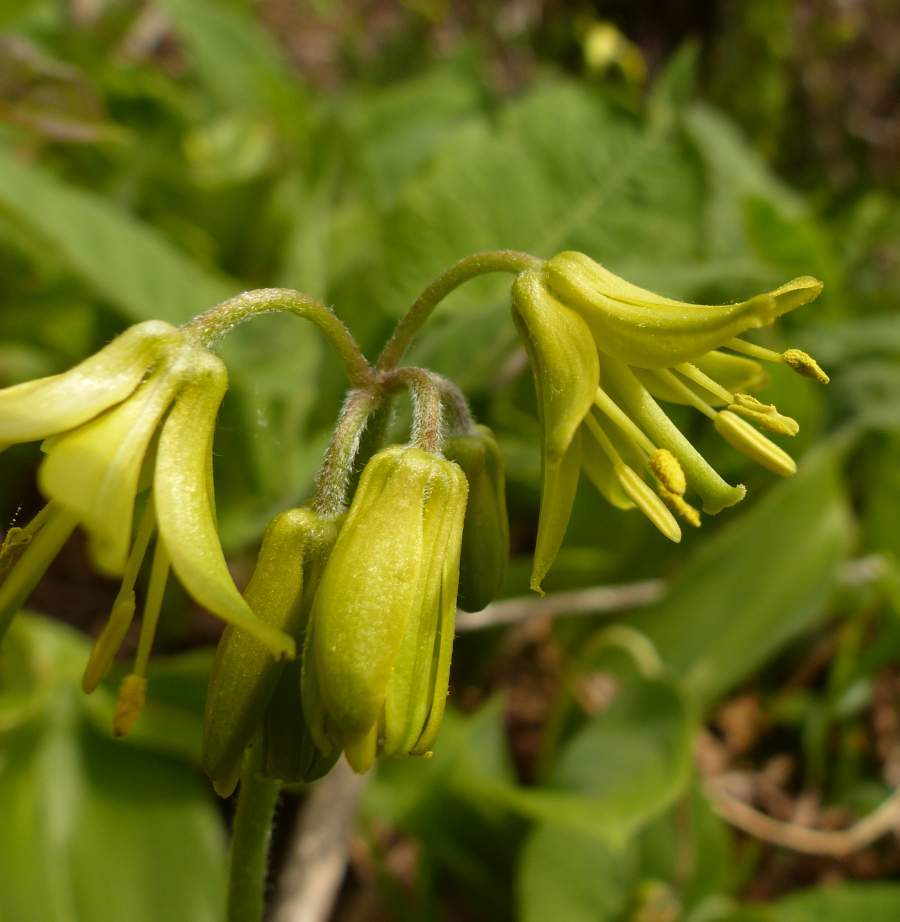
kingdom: Plantae
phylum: Tracheophyta
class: Liliopsida
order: Liliales
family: Liliaceae
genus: Clintonia
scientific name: Clintonia borealis
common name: Yellow clintonia
